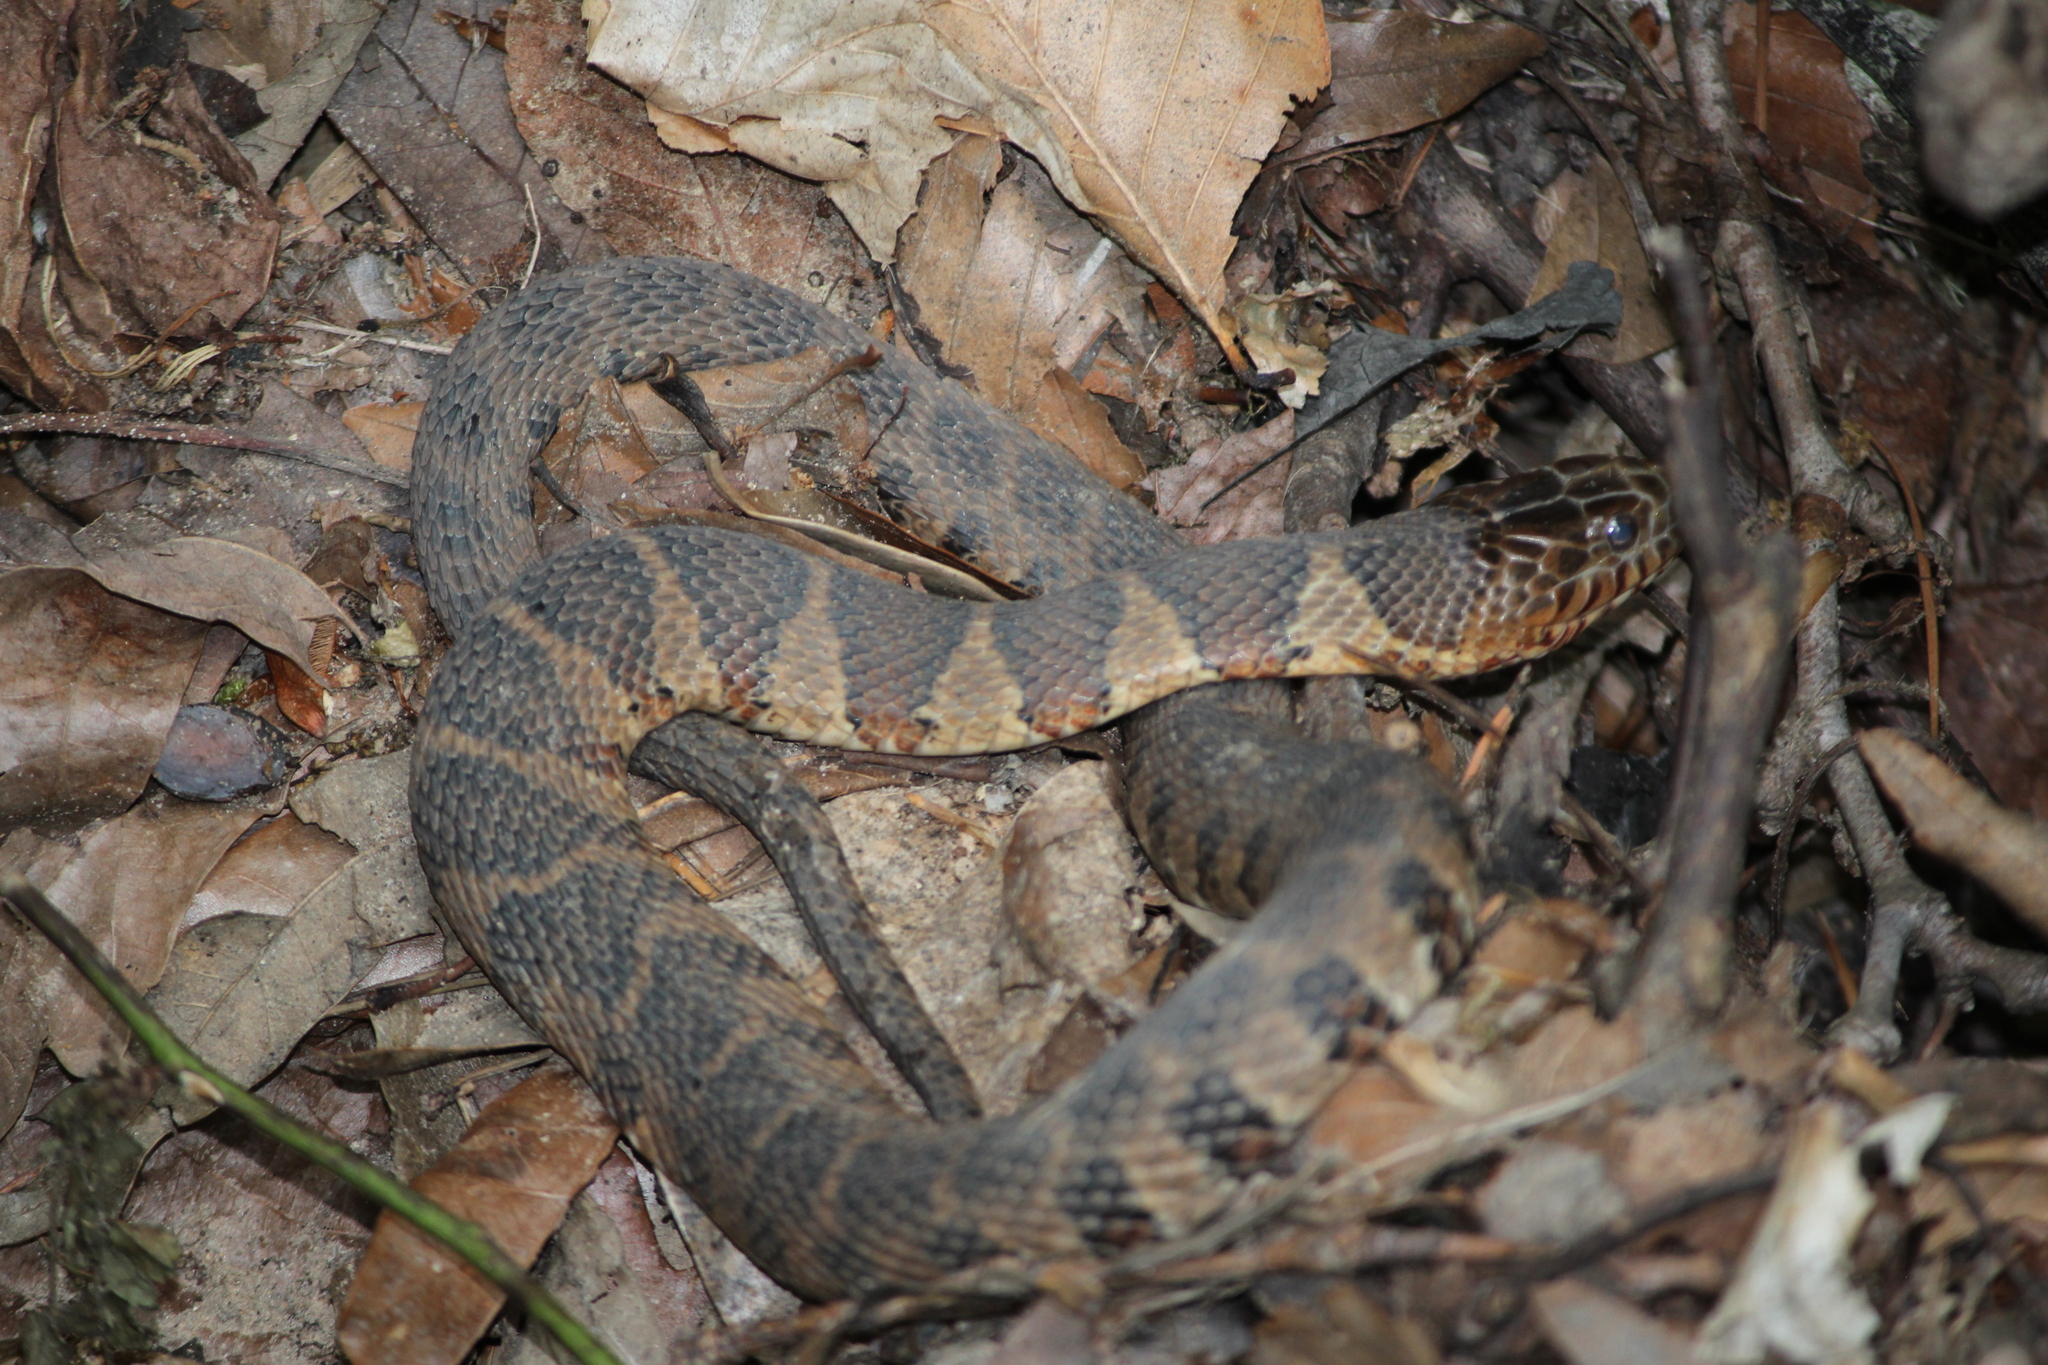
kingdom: Animalia
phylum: Chordata
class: Squamata
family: Colubridae
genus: Nerodia
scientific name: Nerodia sipedon
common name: Northern water snake
